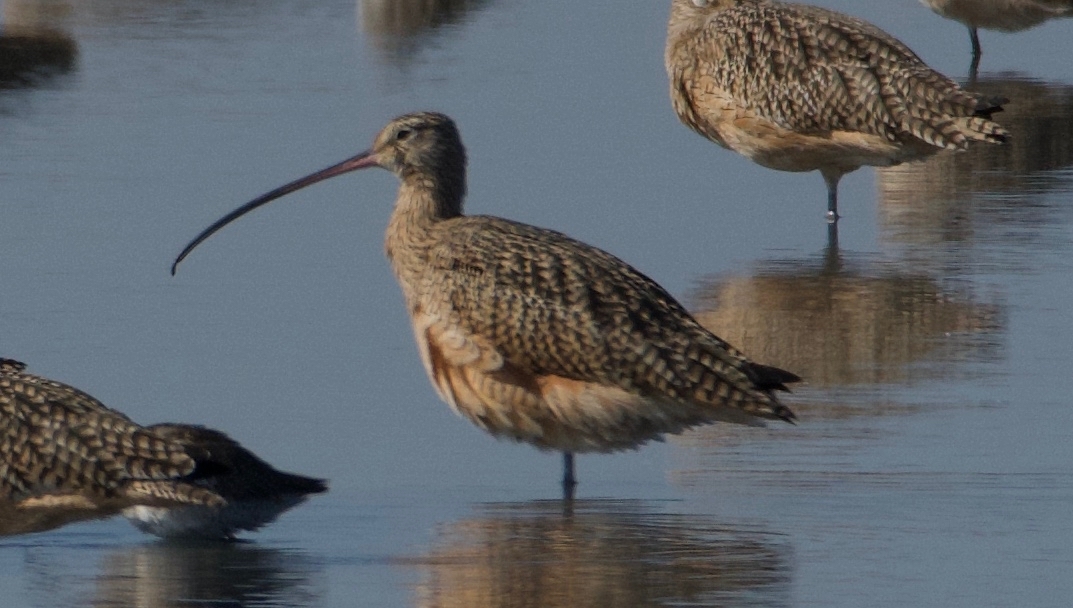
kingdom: Animalia
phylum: Chordata
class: Aves
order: Charadriiformes
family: Scolopacidae
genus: Numenius
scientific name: Numenius americanus
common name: Long-billed curlew
